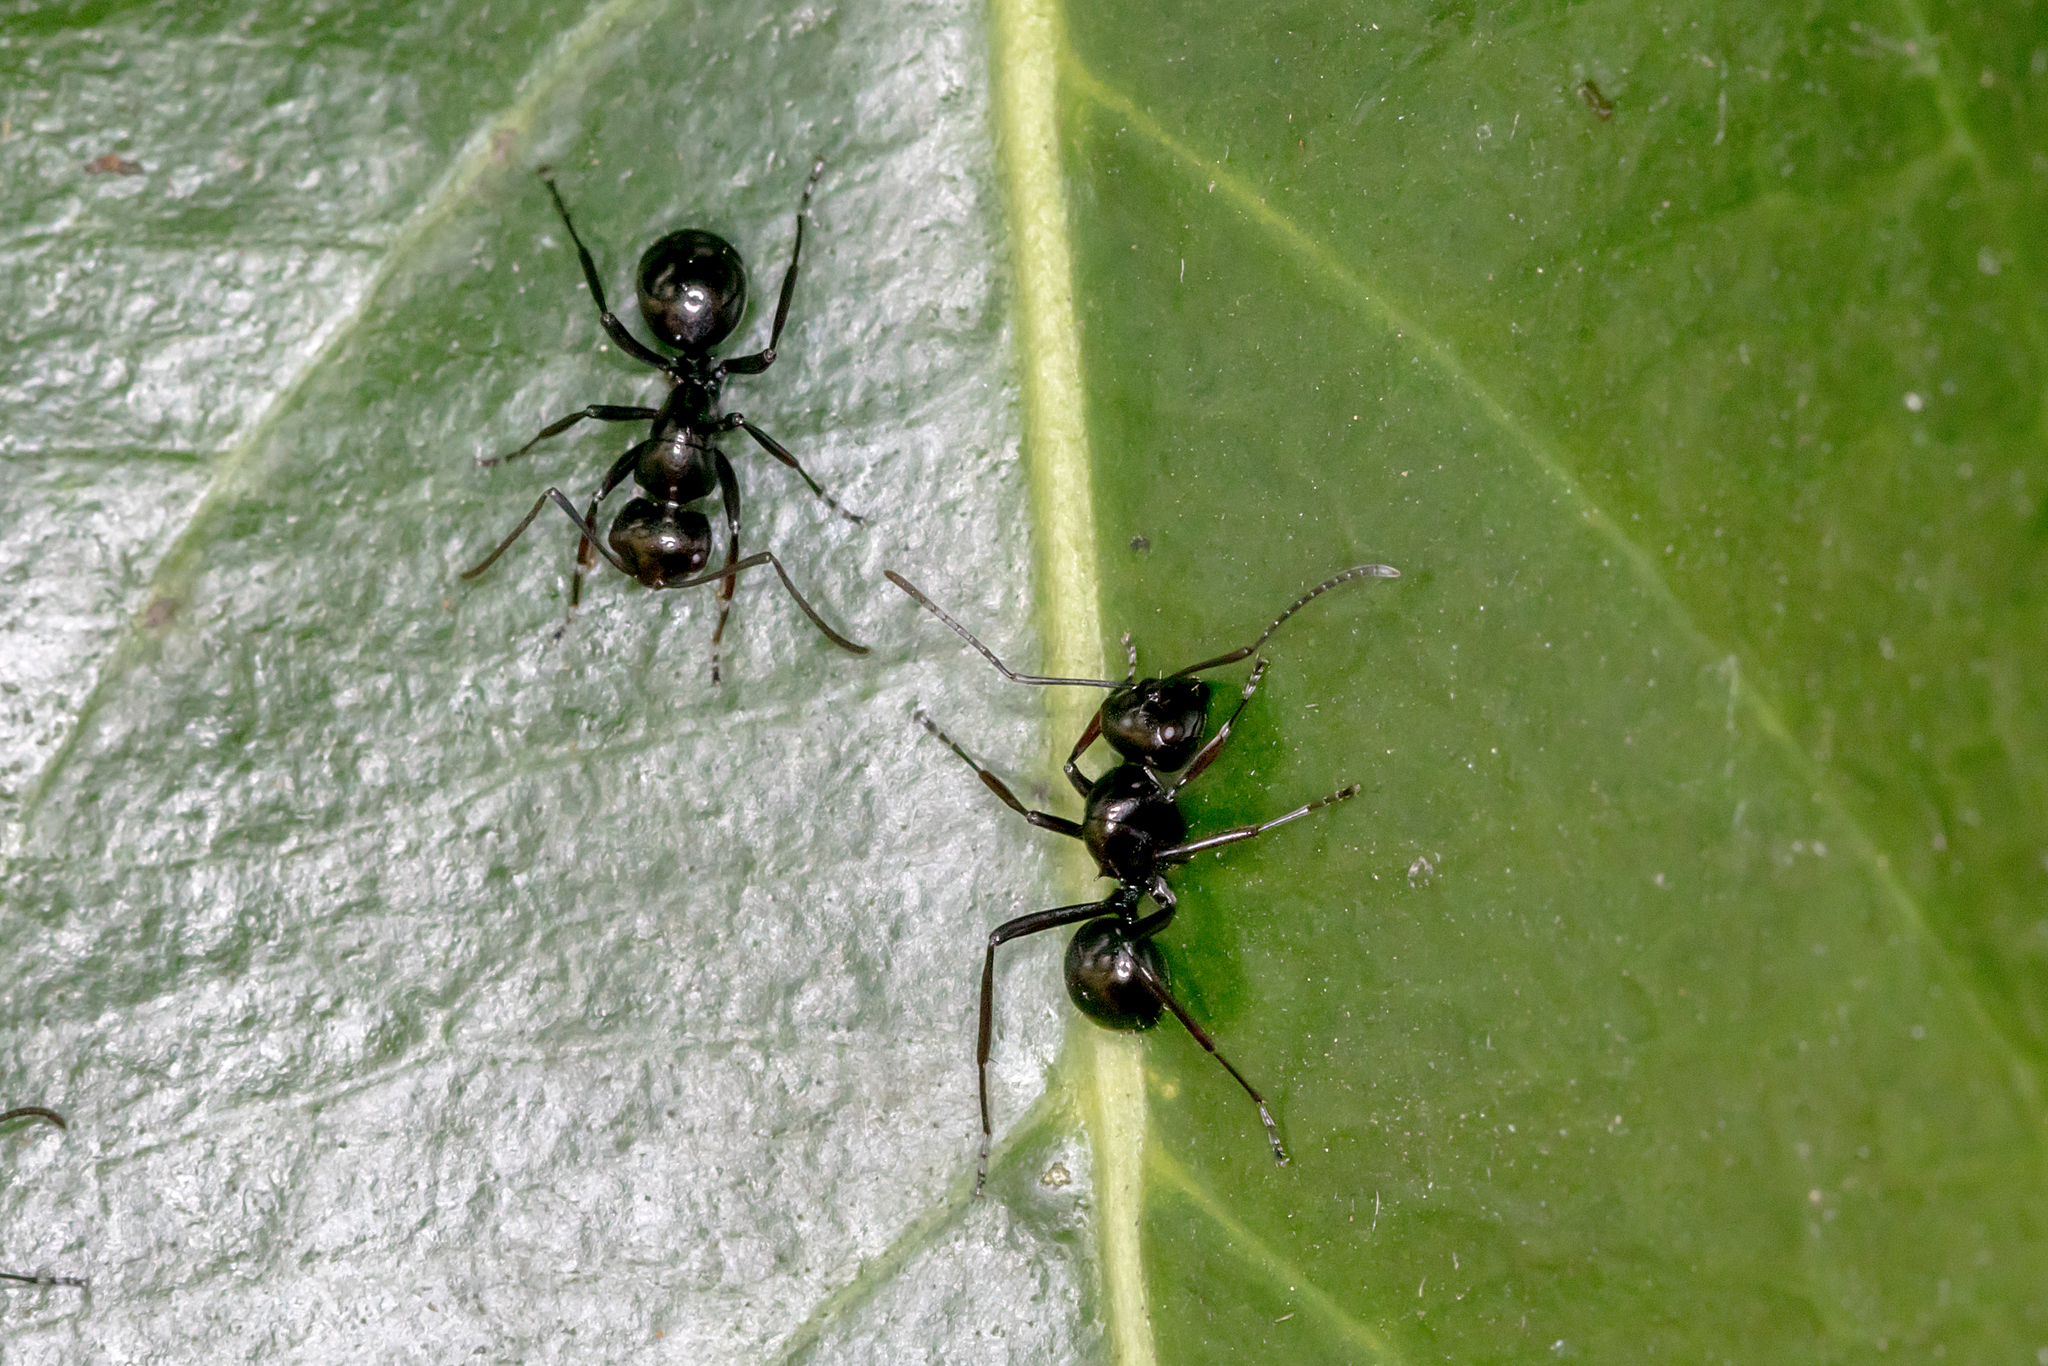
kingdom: Animalia
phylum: Arthropoda
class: Insecta
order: Hymenoptera
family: Formicidae
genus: Polyrhachis
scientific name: Polyrhachis australis
